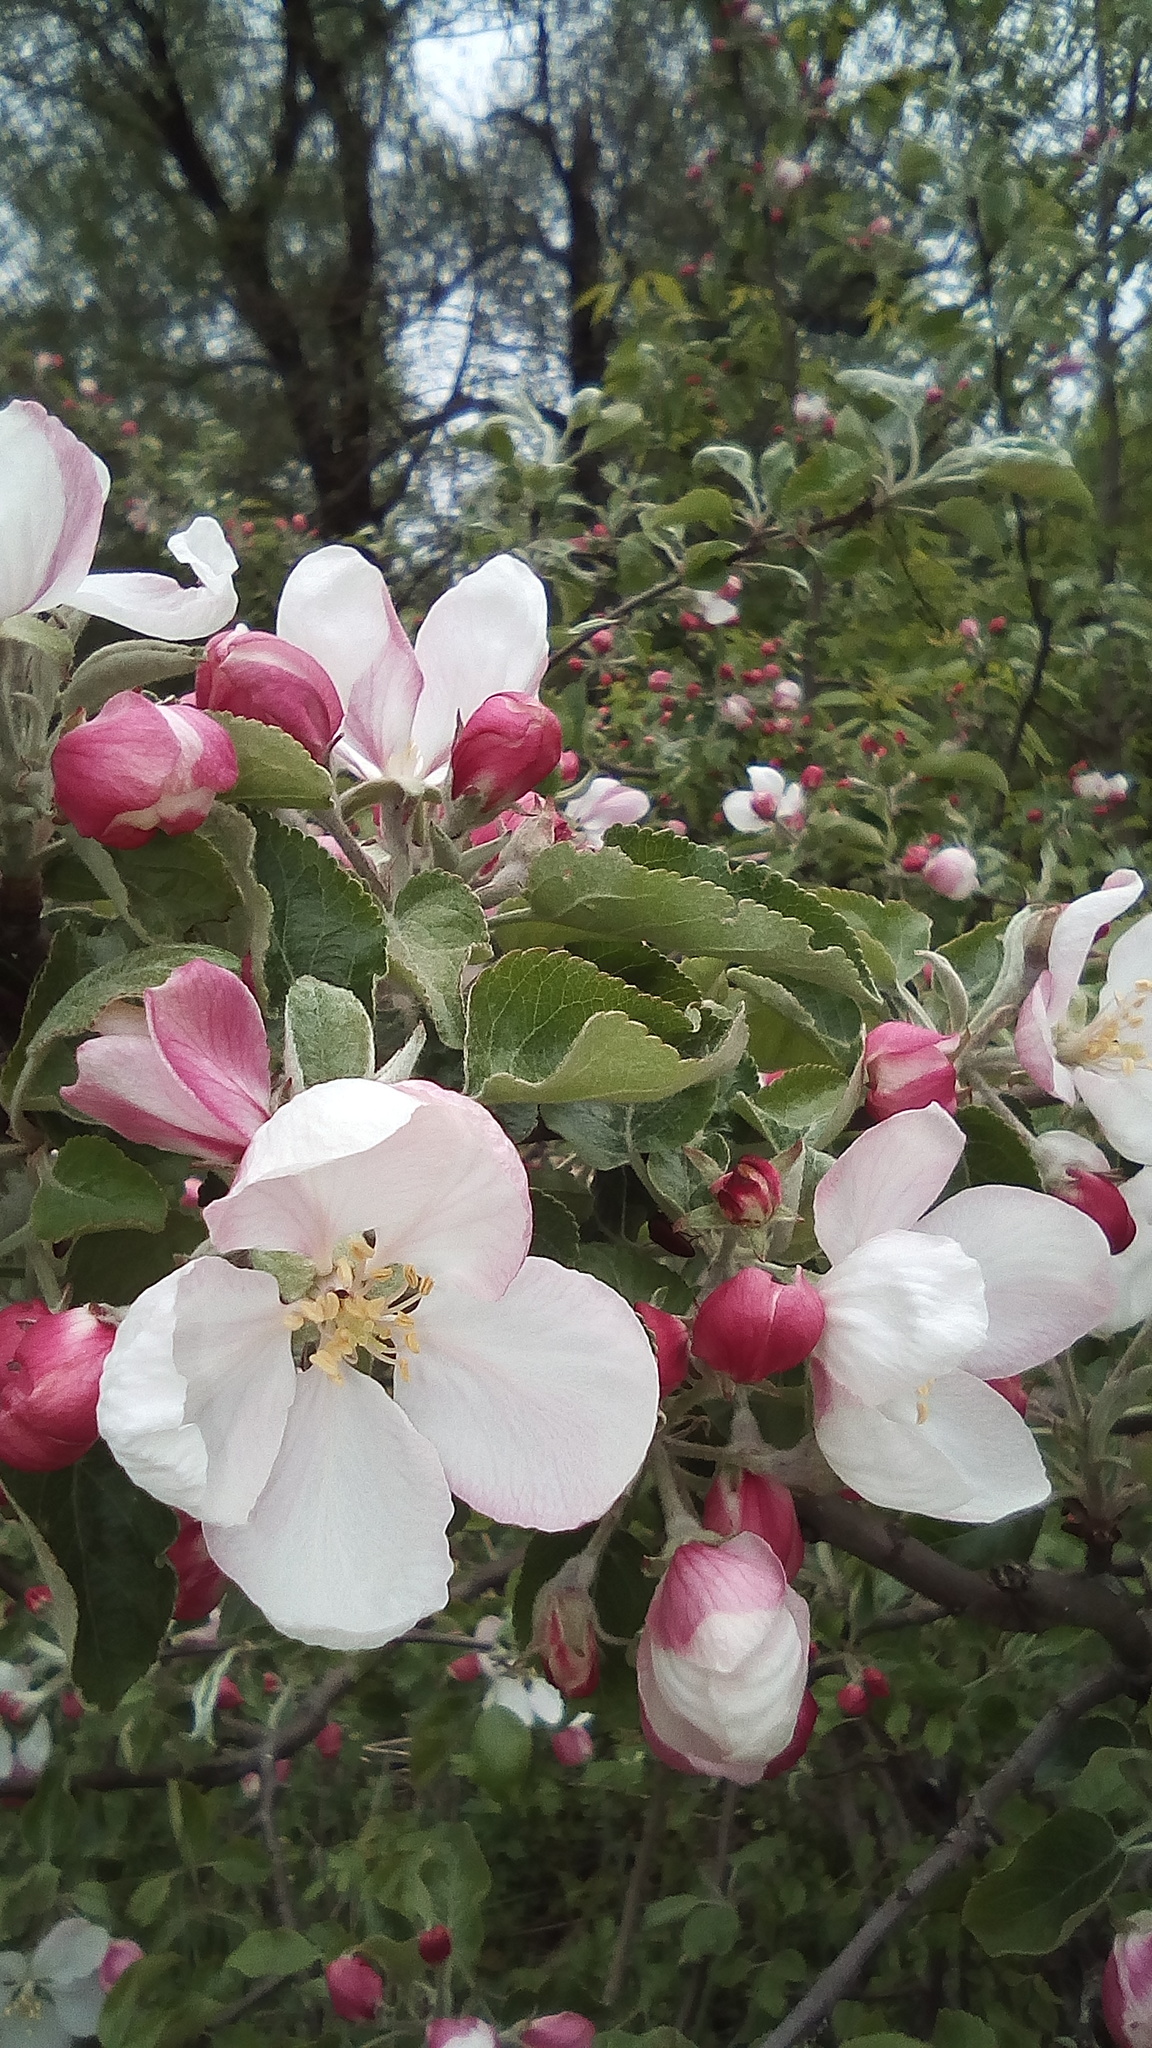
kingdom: Plantae
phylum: Tracheophyta
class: Magnoliopsida
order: Rosales
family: Rosaceae
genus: Malus
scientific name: Malus domestica
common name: Apple
